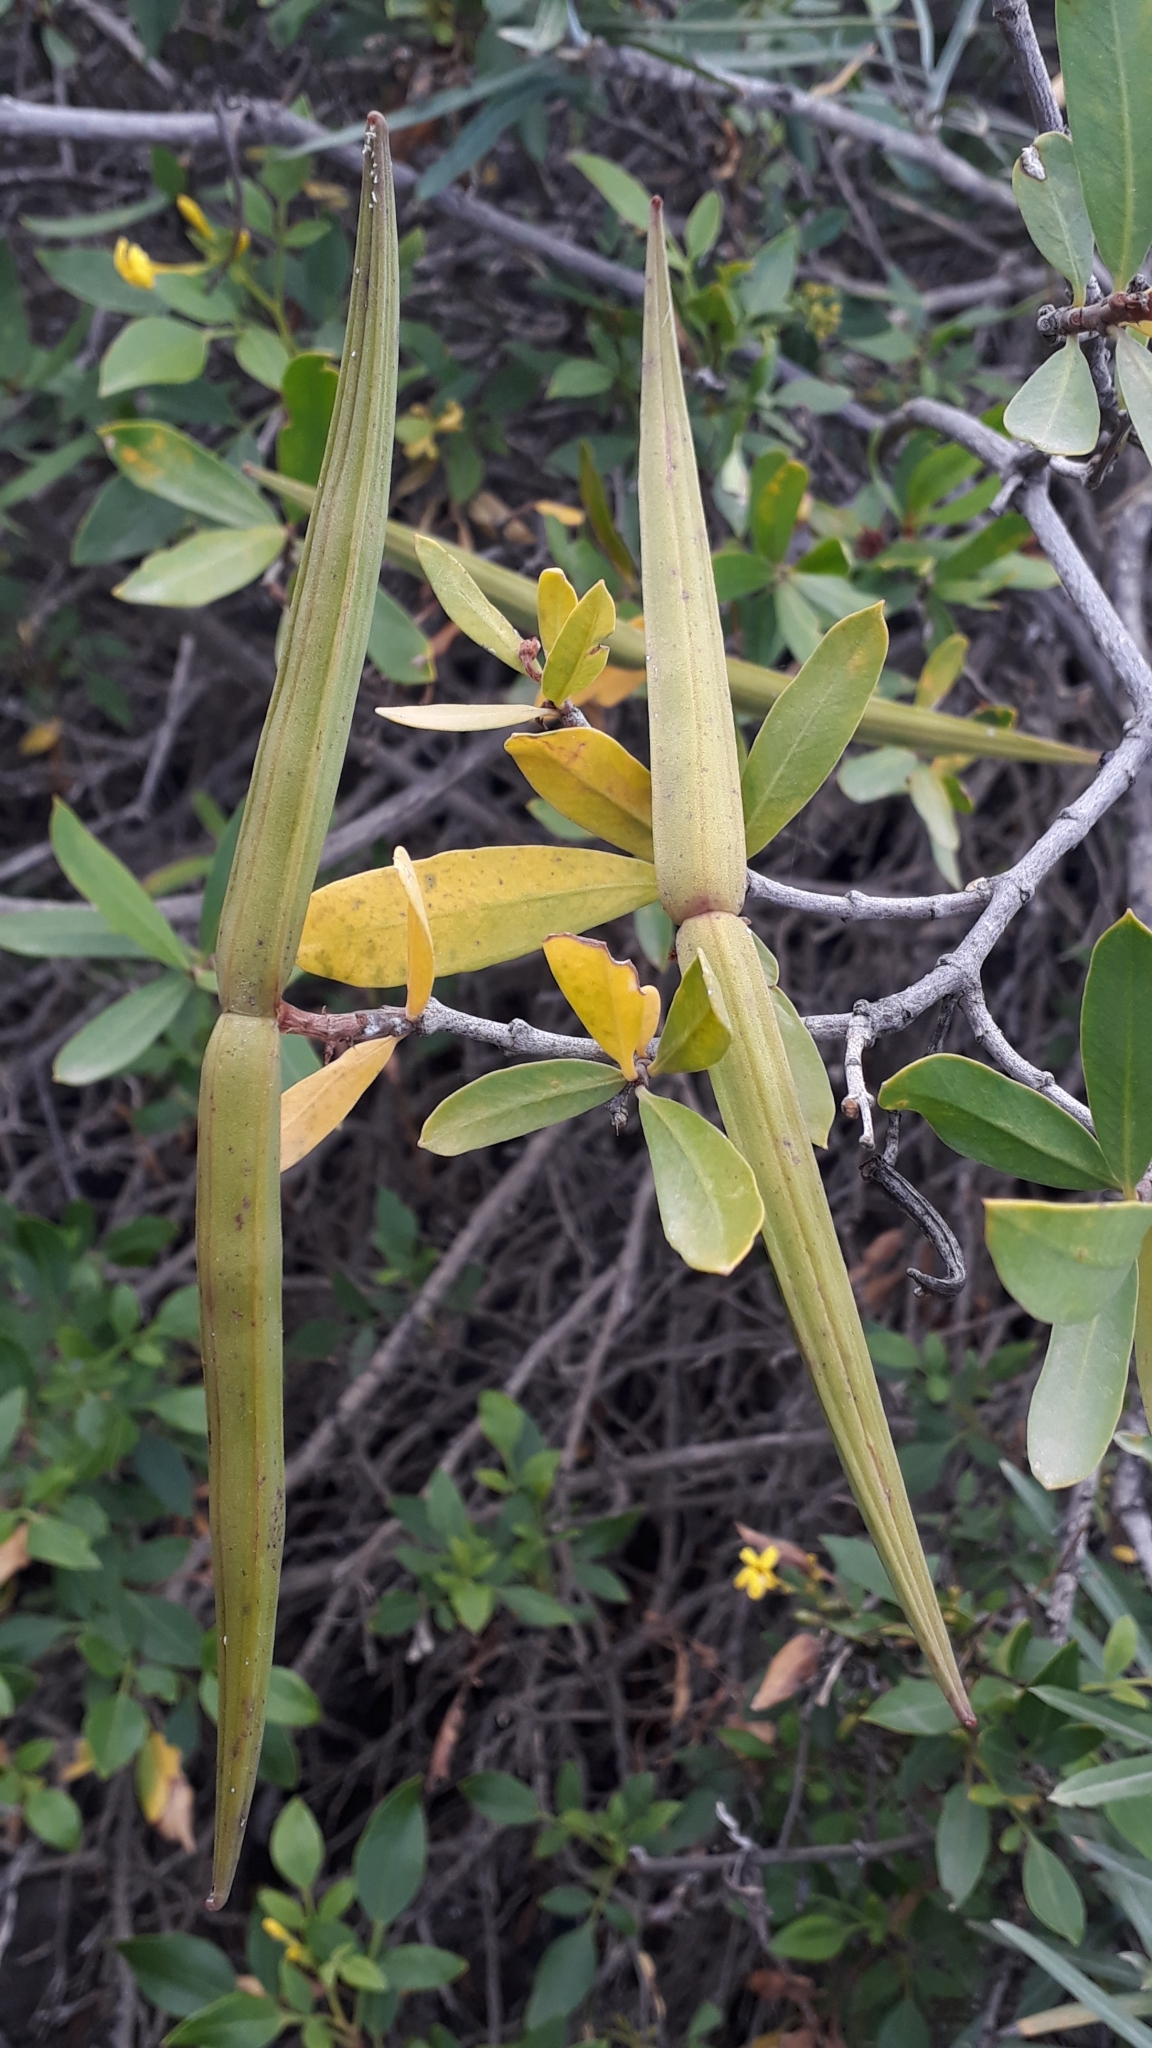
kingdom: Plantae
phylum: Tracheophyta
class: Magnoliopsida
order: Gentianales
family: Apocynaceae
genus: Periploca
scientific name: Periploca laevigata
